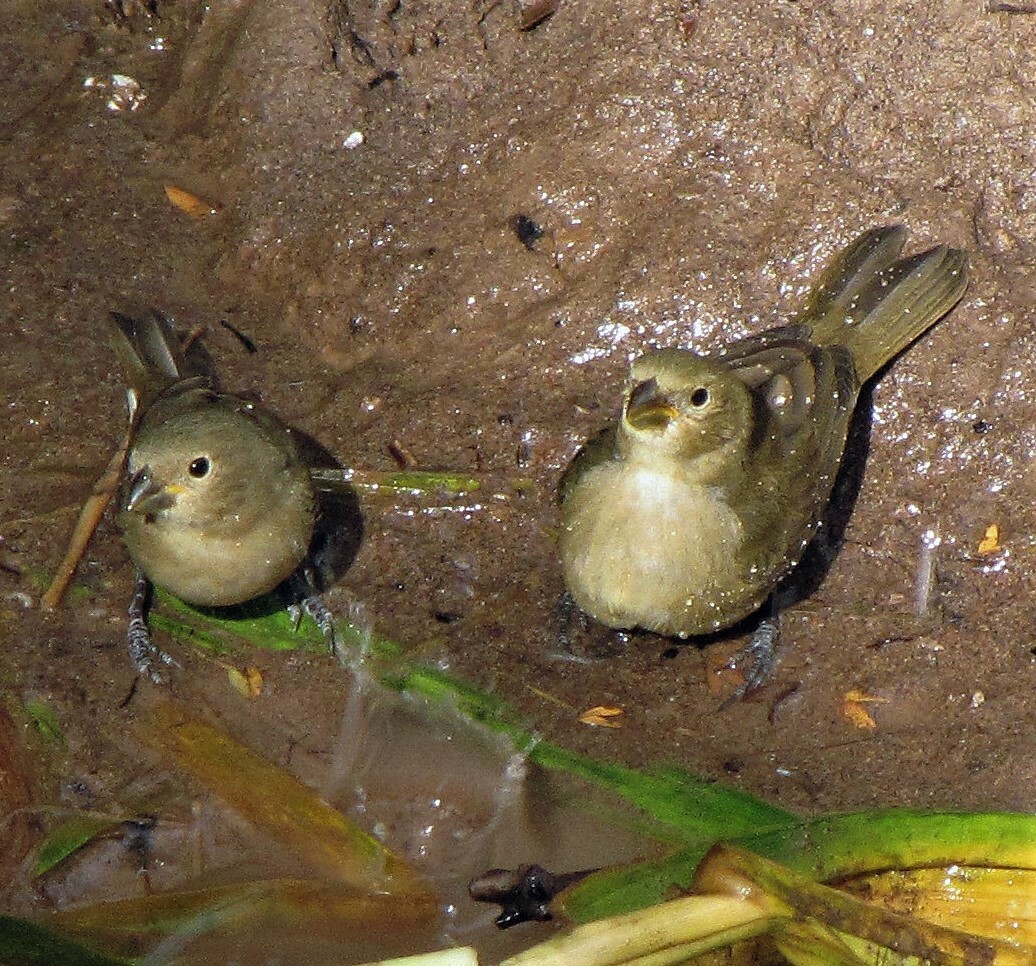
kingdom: Animalia
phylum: Chordata
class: Aves
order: Passeriformes
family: Thraupidae
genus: Sporophila
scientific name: Sporophila caerulescens
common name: Double-collared seedeater
